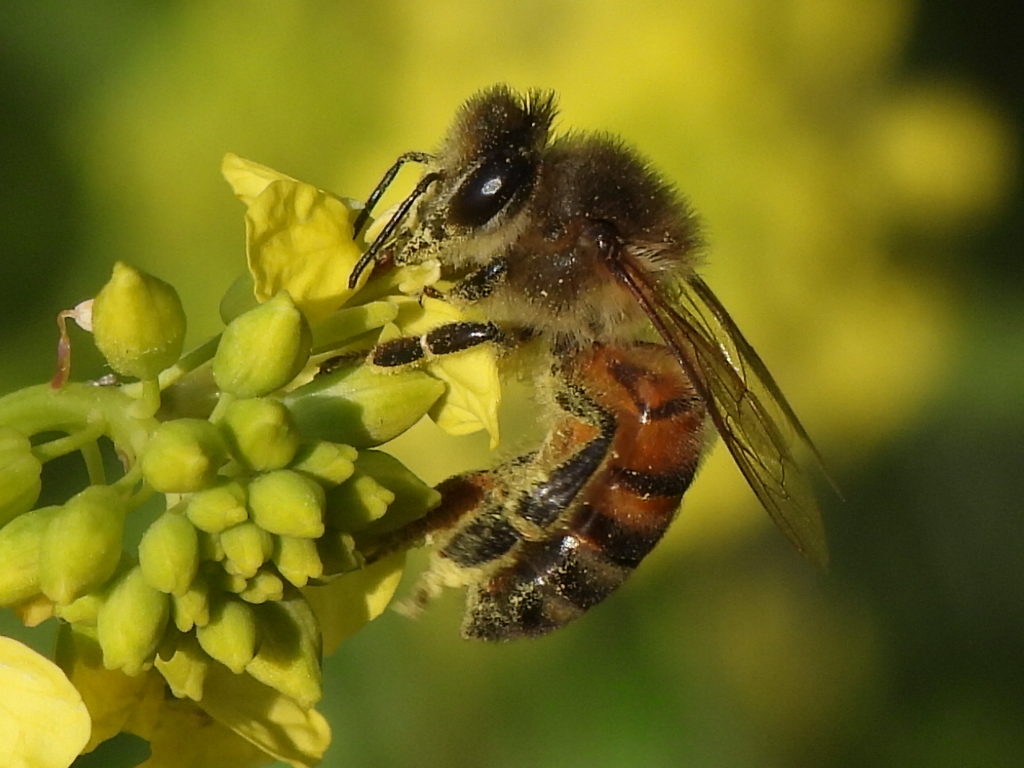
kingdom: Animalia
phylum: Arthropoda
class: Insecta
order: Hymenoptera
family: Apidae
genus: Apis
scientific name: Apis mellifera
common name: Honey bee
